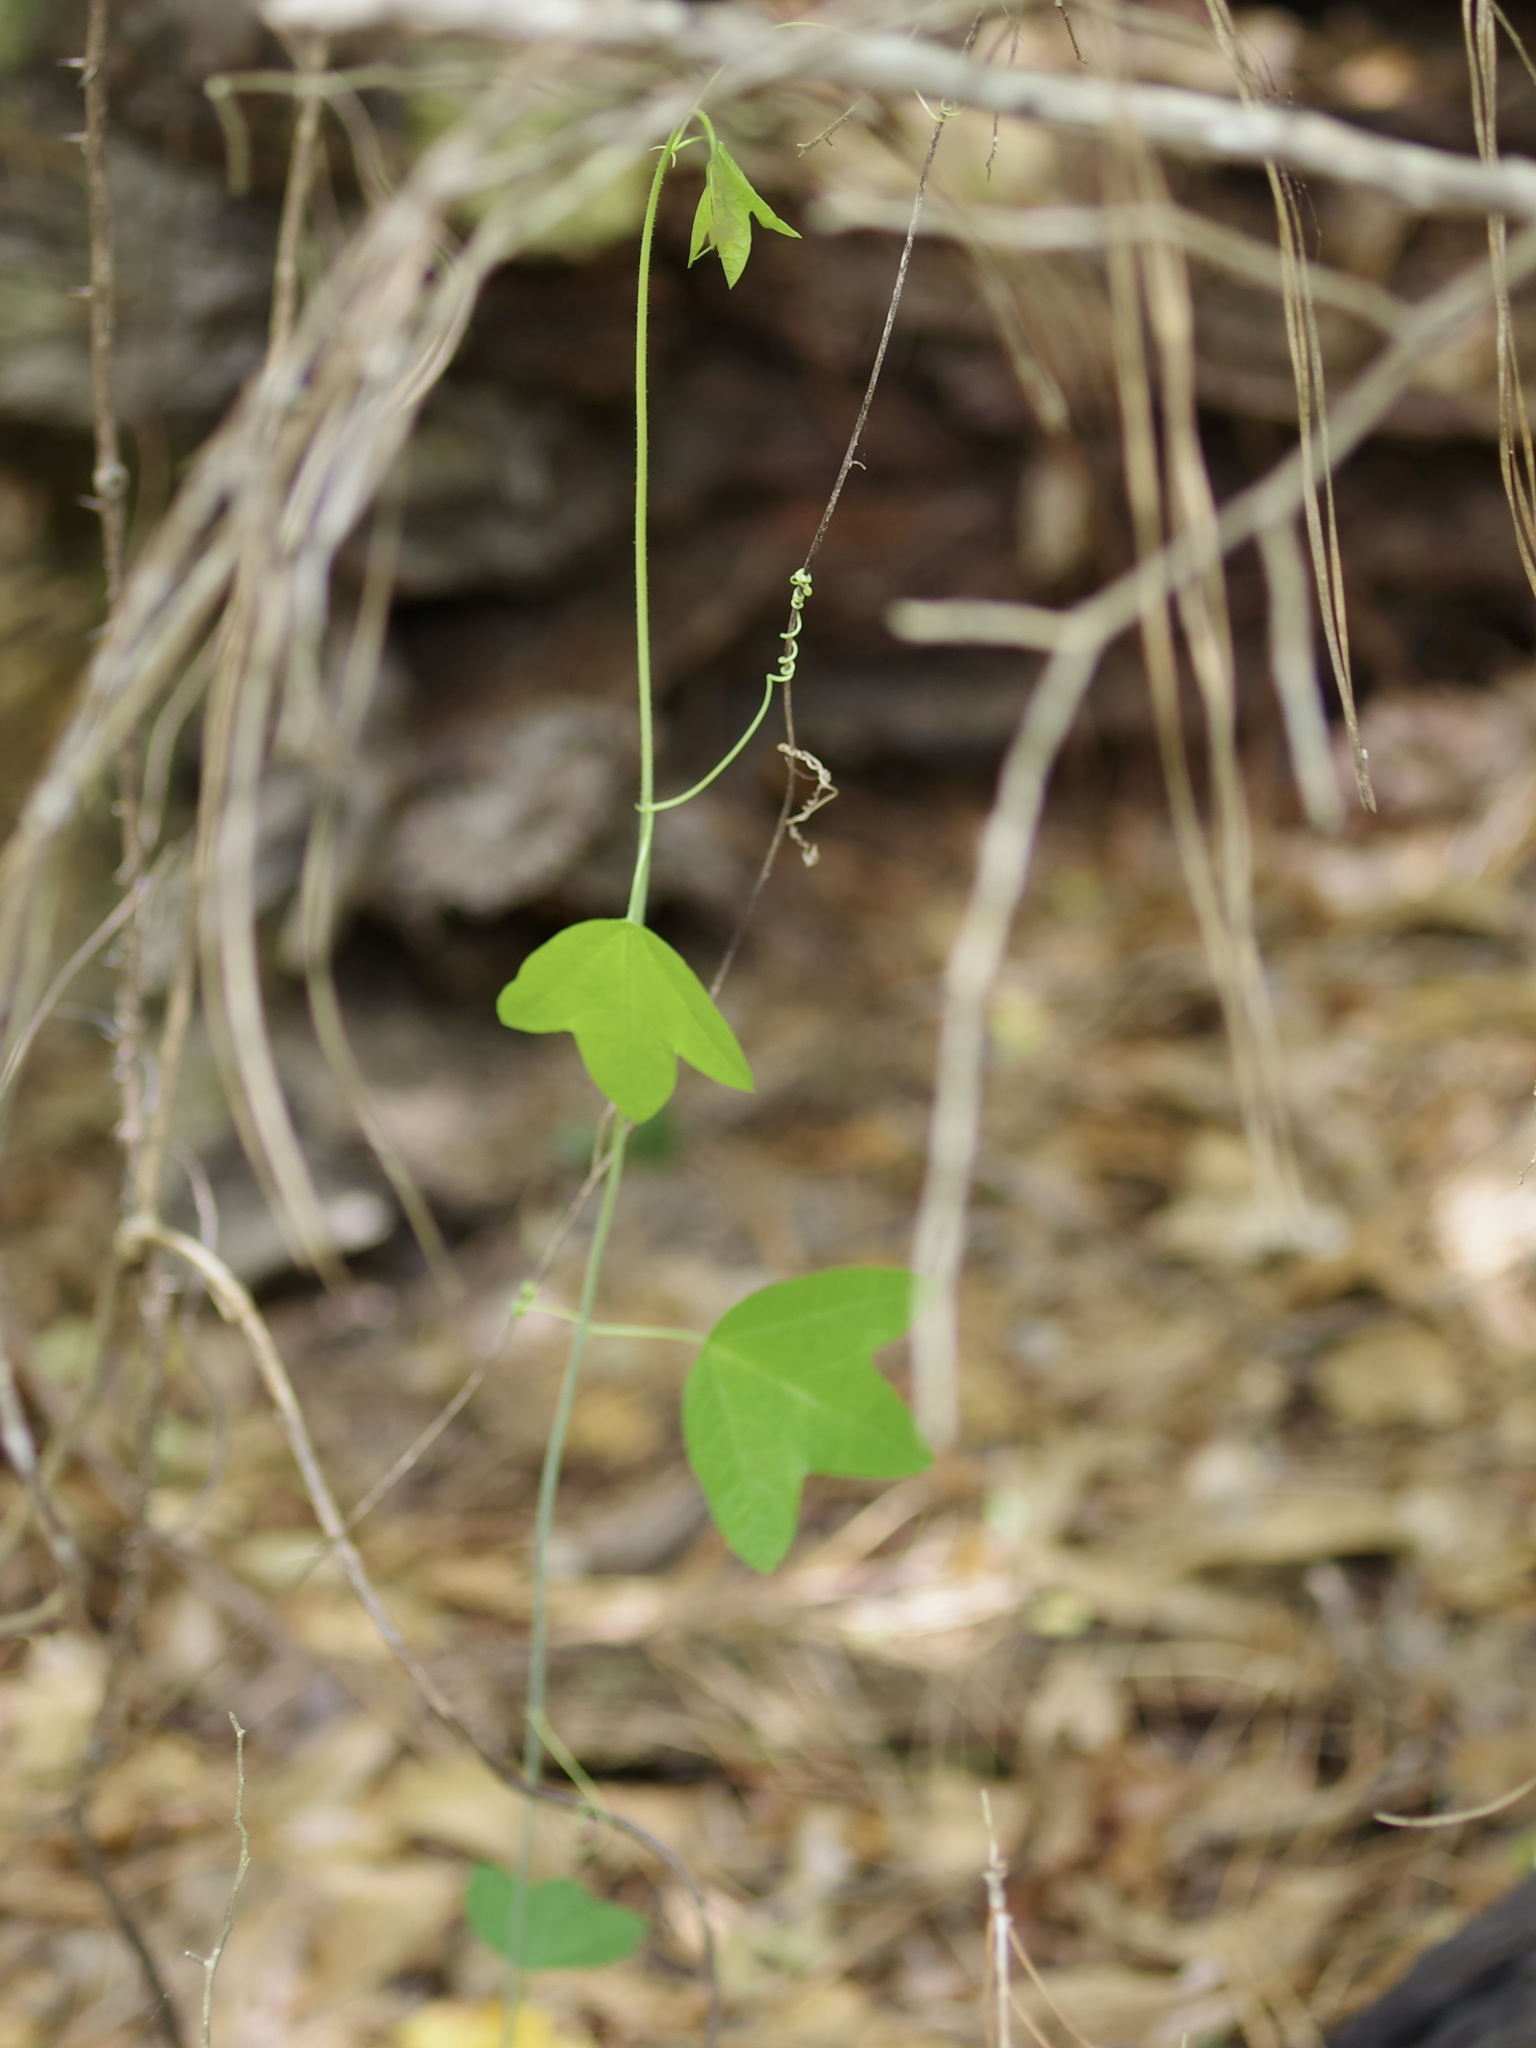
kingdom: Plantae
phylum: Tracheophyta
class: Magnoliopsida
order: Malpighiales
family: Passifloraceae
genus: Passiflora
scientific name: Passiflora lutea
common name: Yellow passionflower
